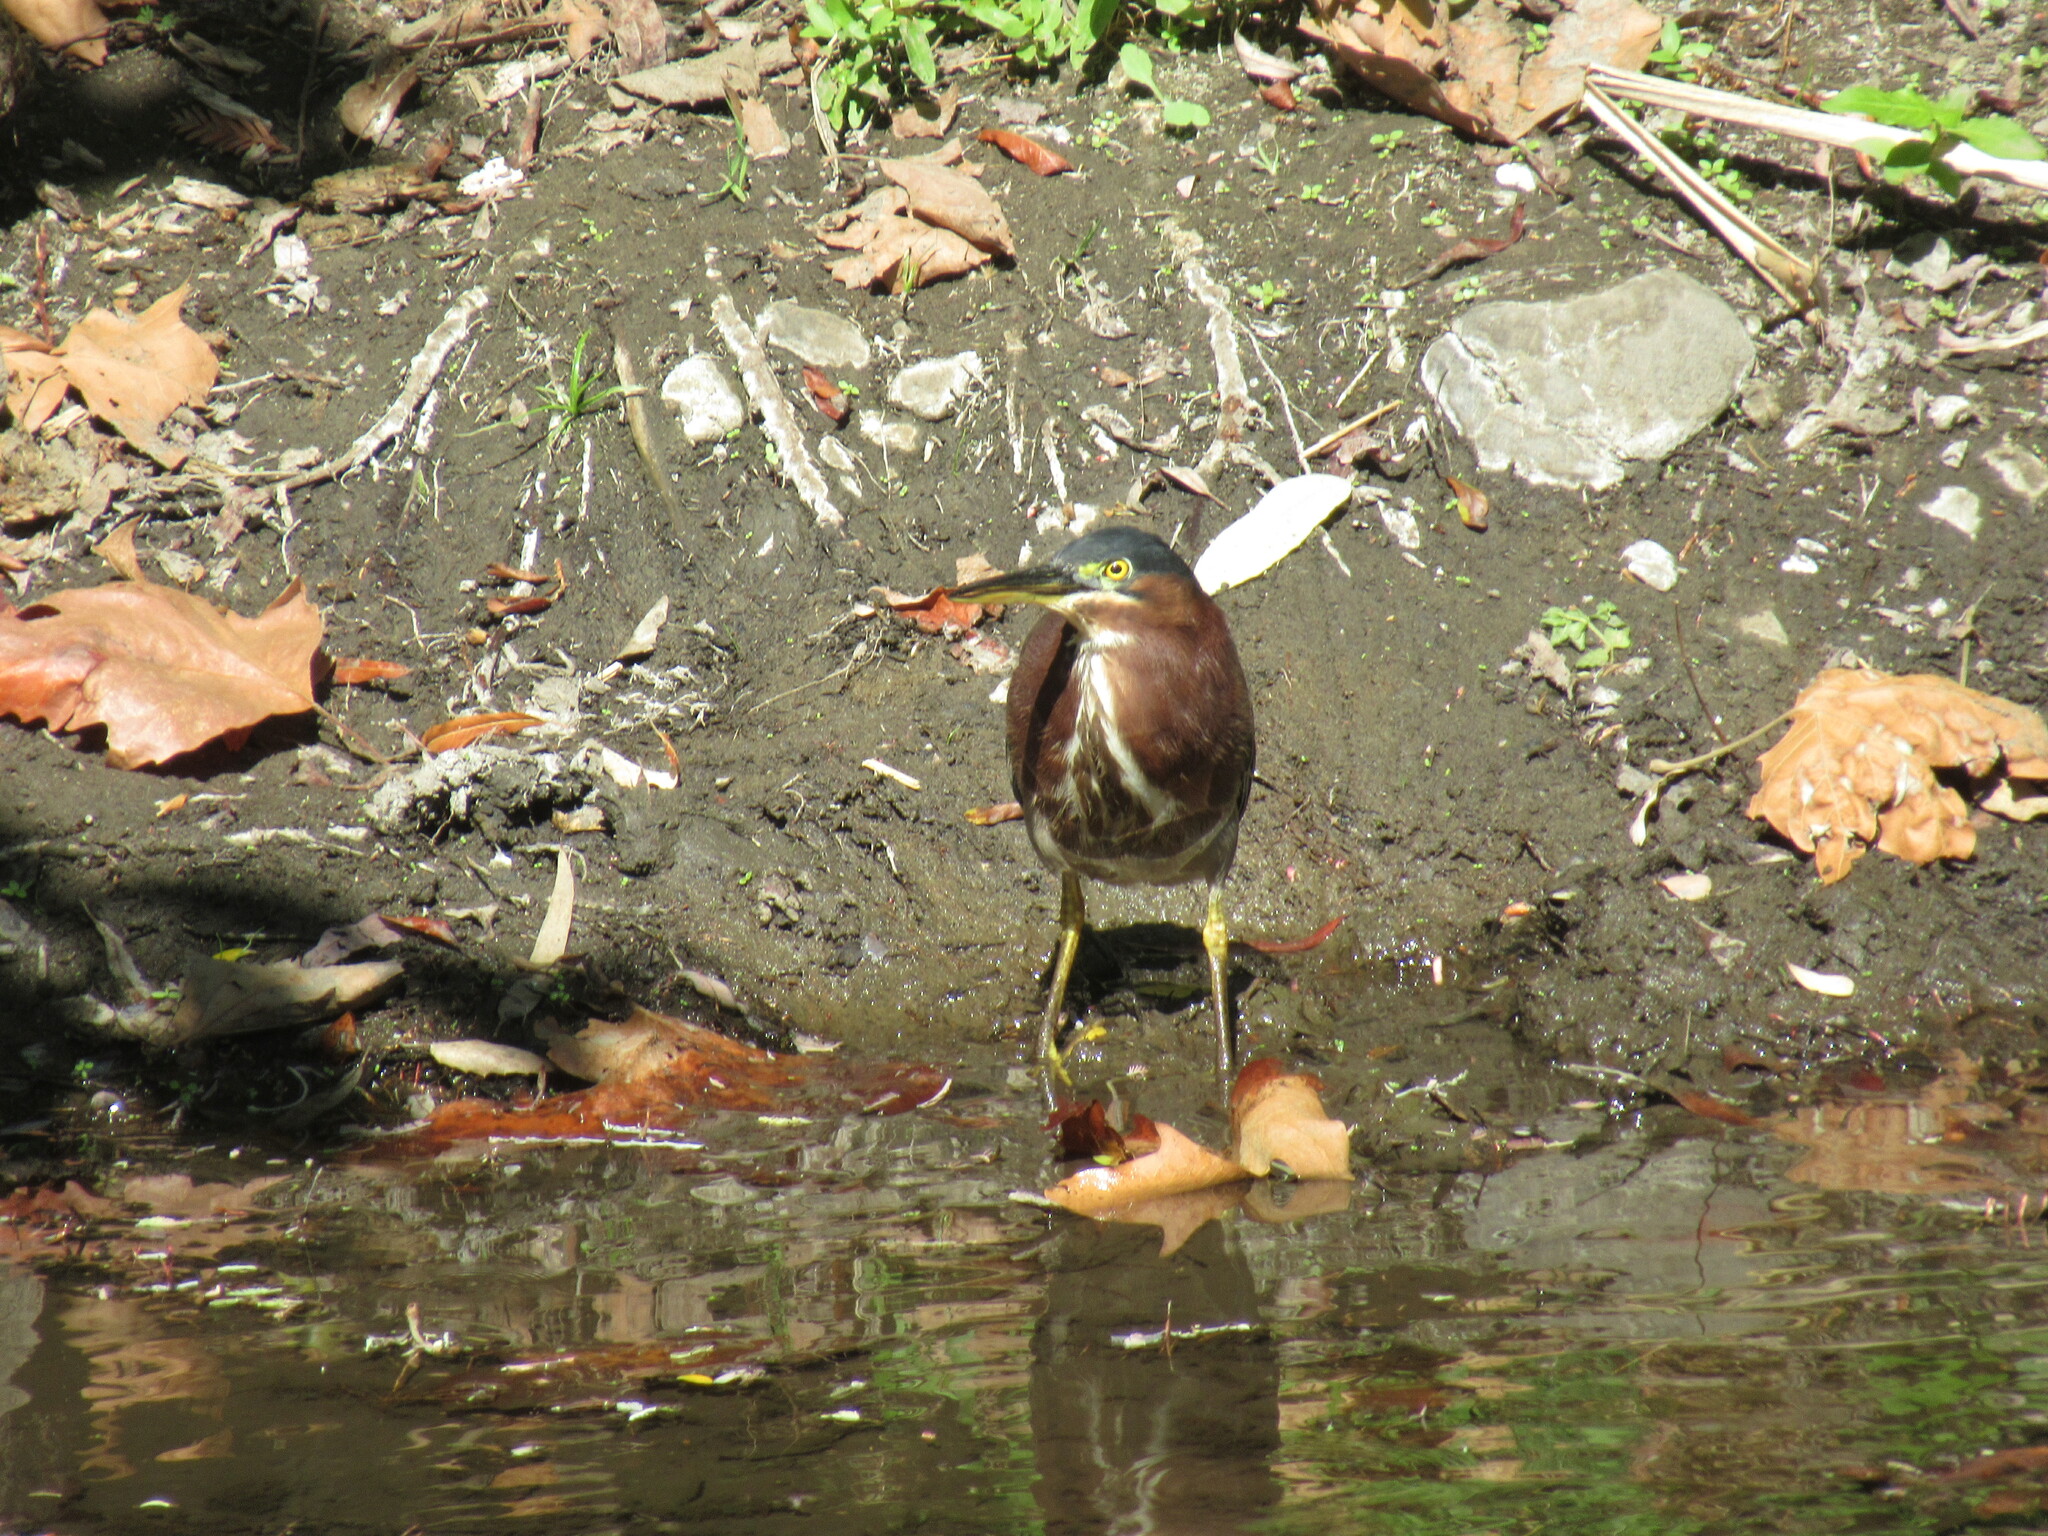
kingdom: Animalia
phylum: Chordata
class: Aves
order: Pelecaniformes
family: Ardeidae
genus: Butorides
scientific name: Butorides virescens
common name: Green heron
